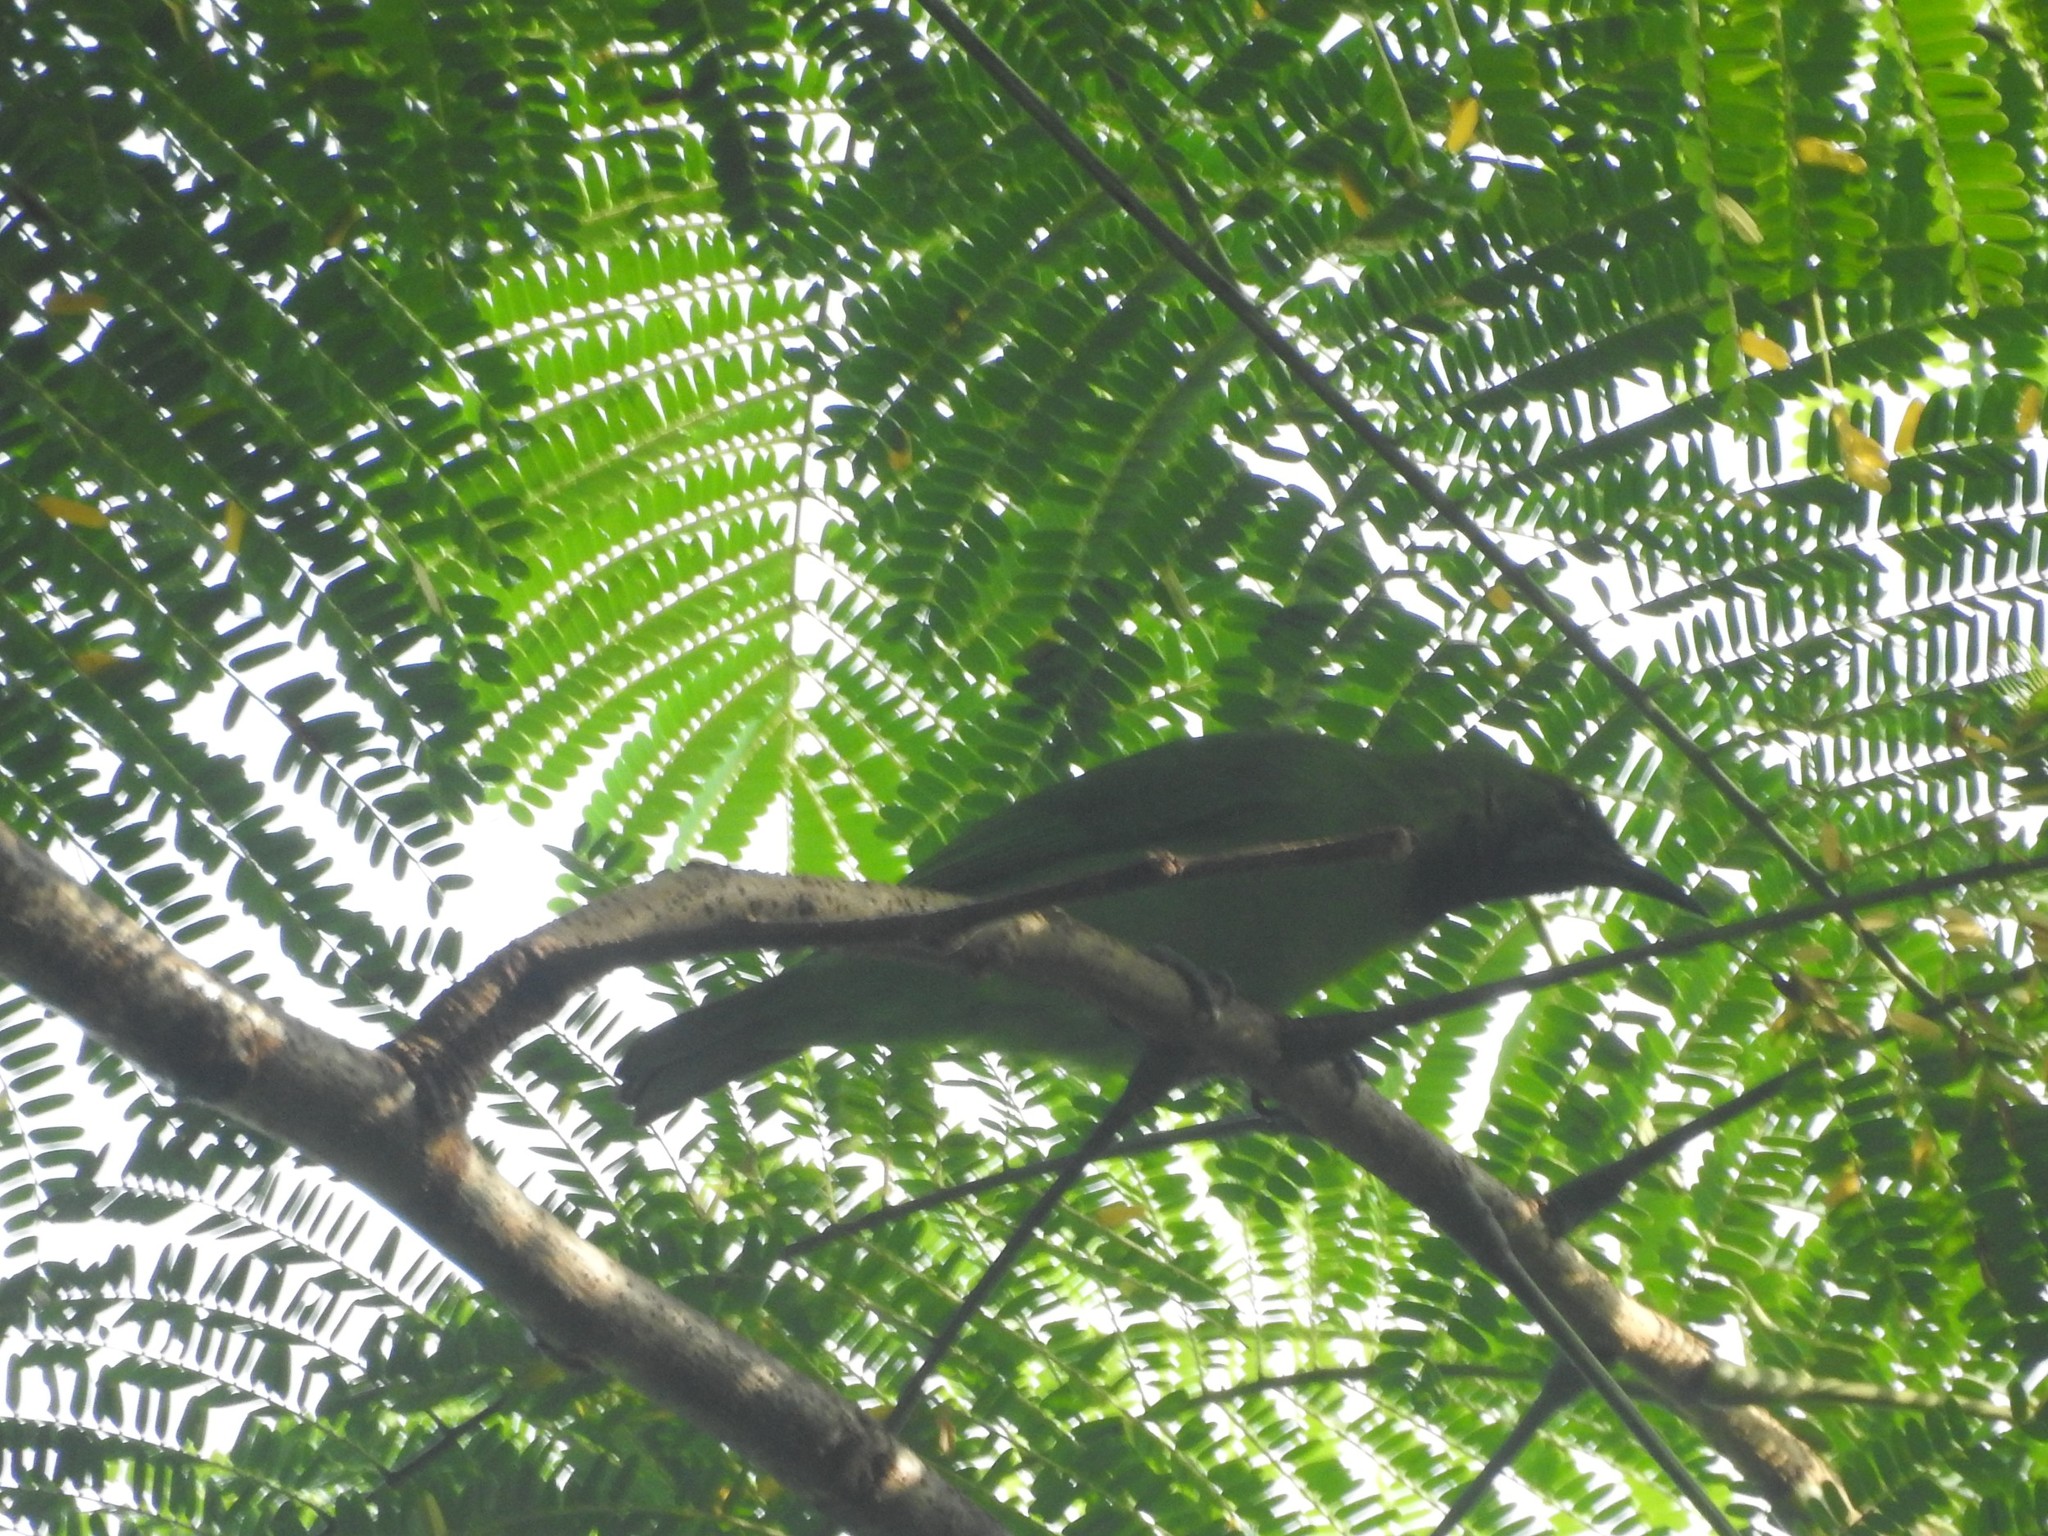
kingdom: Animalia
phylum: Chordata
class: Aves
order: Passeriformes
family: Chloropseidae
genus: Chloropsis
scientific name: Chloropsis aurifrons
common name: Golden-fronted leafbird
